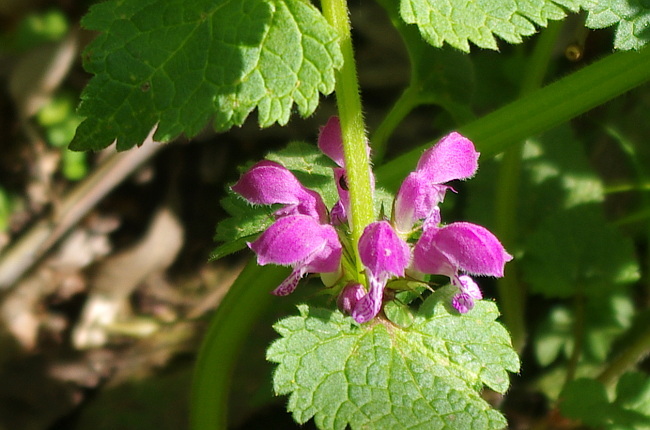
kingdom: Plantae
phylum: Tracheophyta
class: Magnoliopsida
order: Lamiales
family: Lamiaceae
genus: Lamium
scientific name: Lamium maculatum
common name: Spotted dead-nettle
